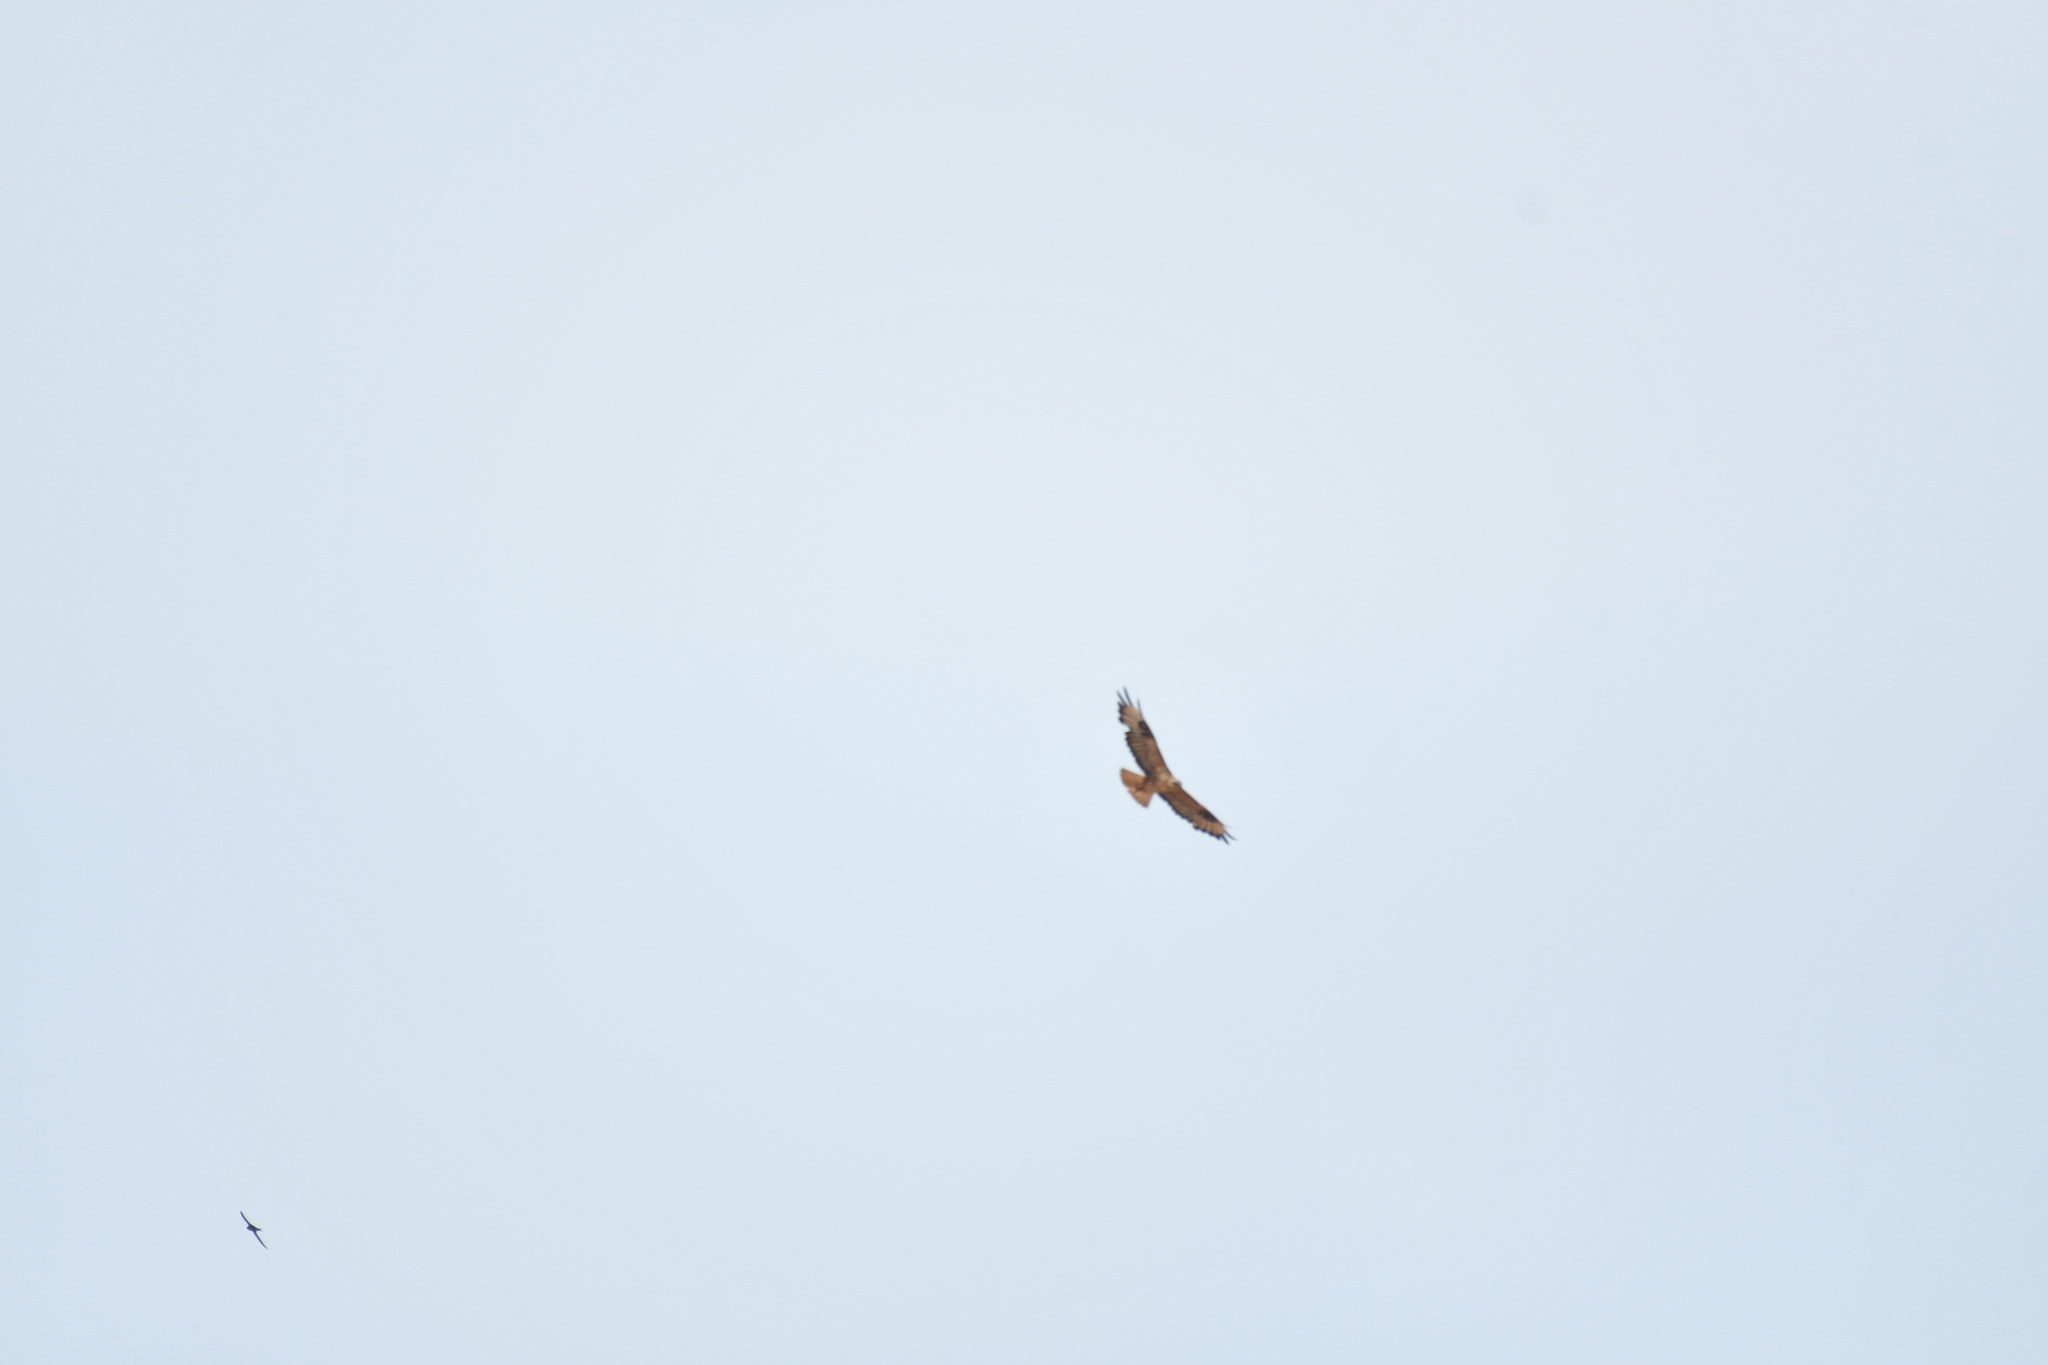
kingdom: Animalia
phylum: Chordata
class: Aves
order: Accipitriformes
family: Accipitridae
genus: Hieraaetus
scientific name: Hieraaetus pennatus
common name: Booted eagle
